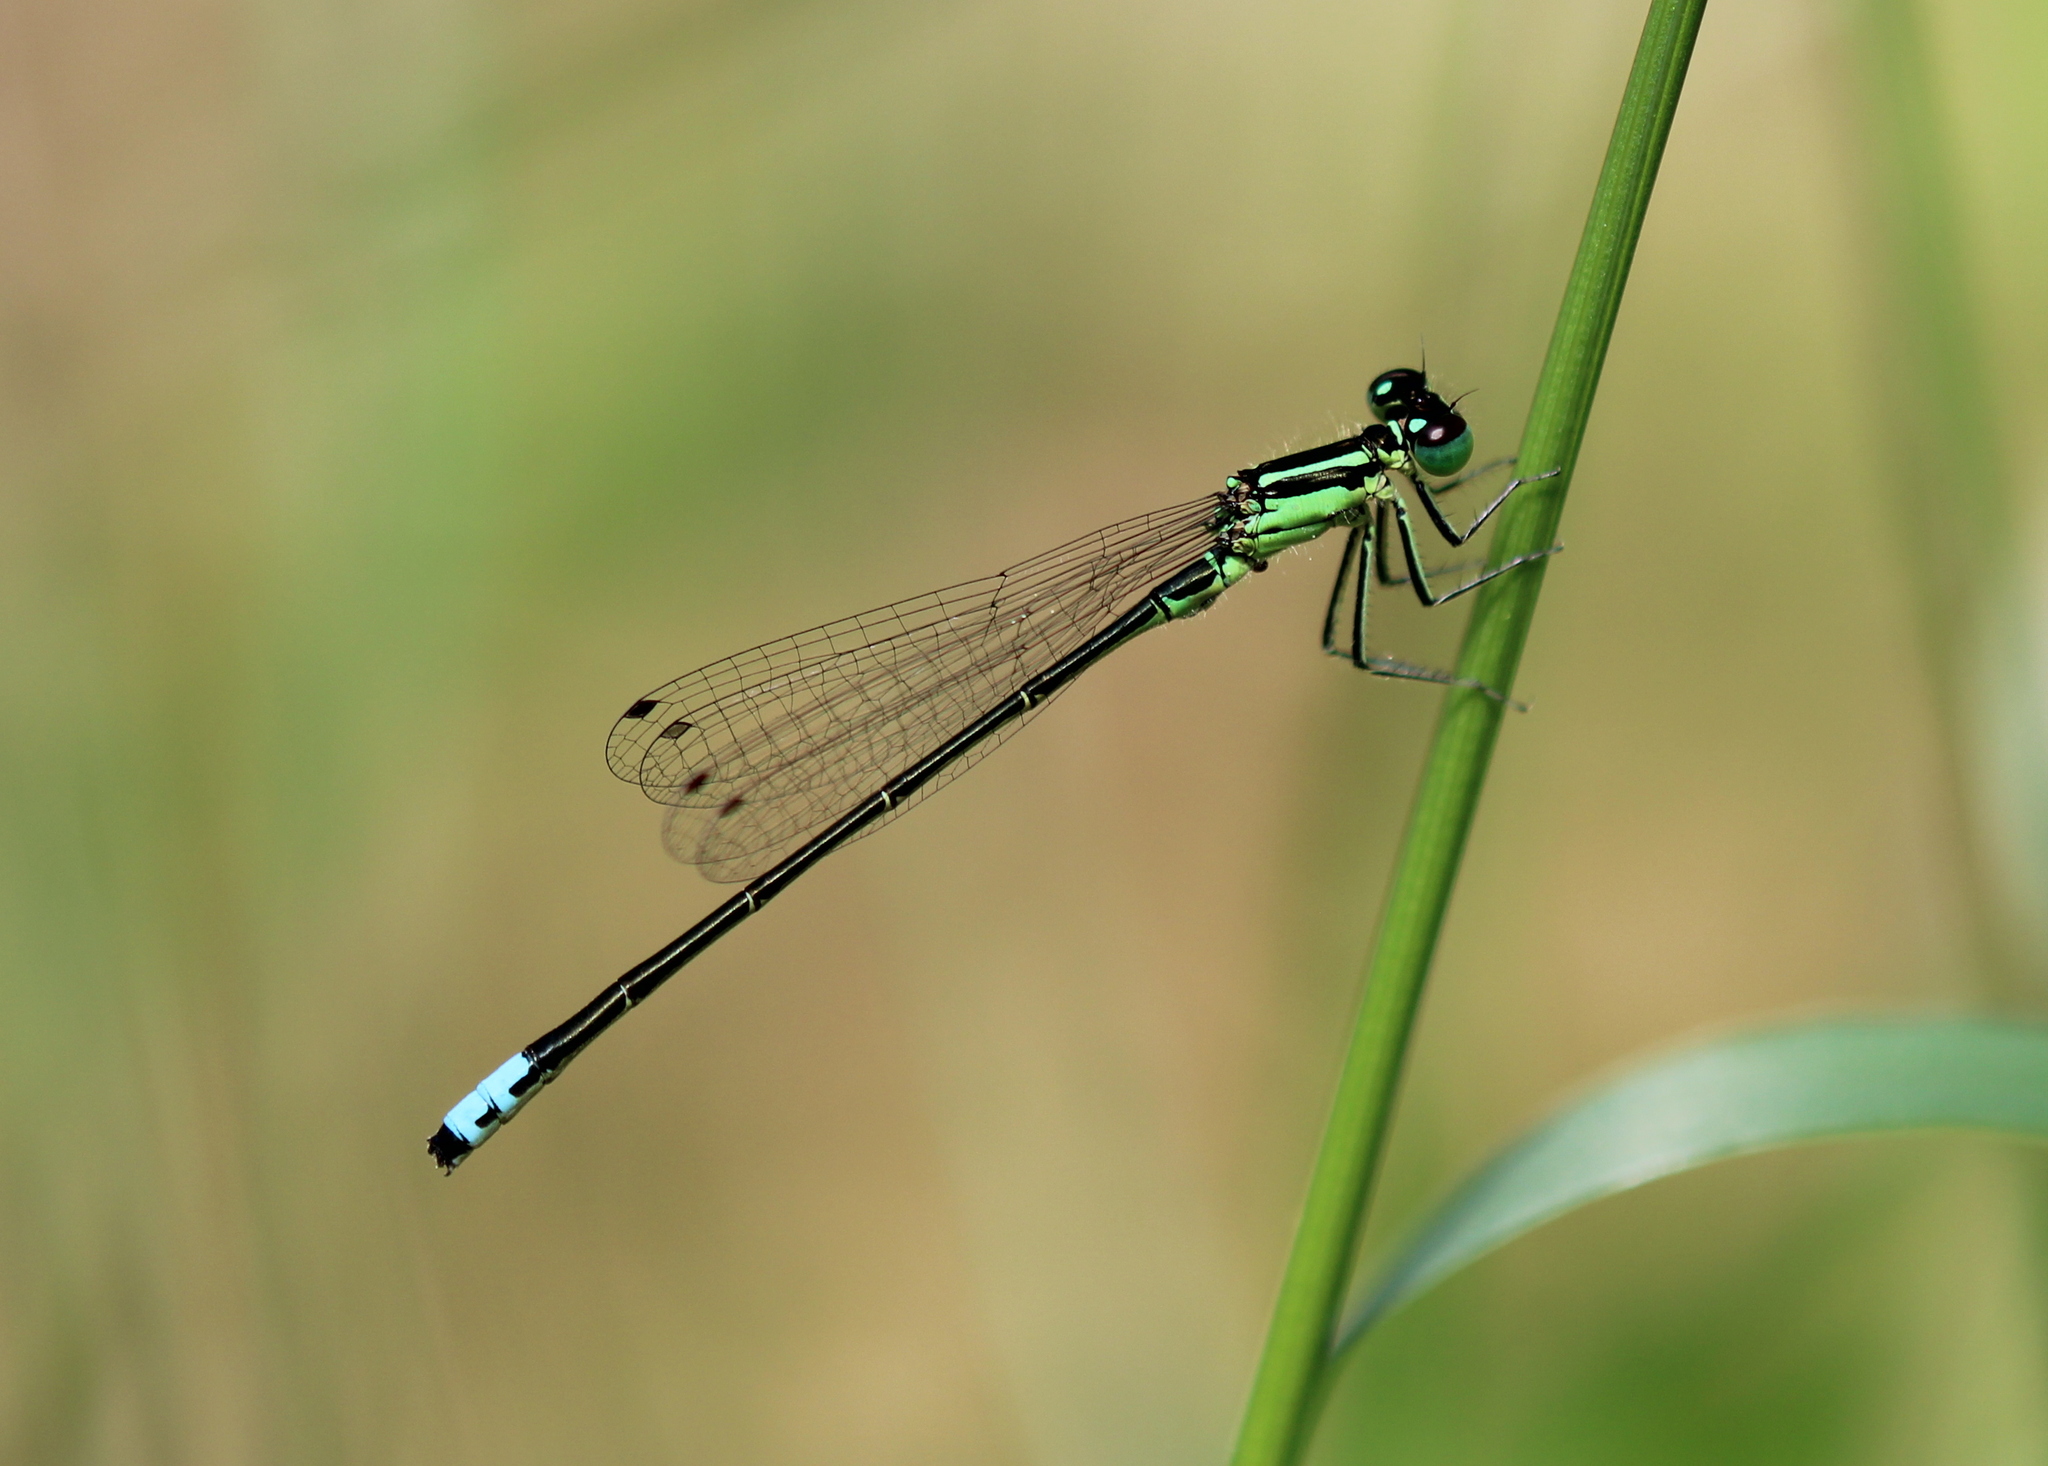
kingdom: Animalia
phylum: Arthropoda
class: Insecta
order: Odonata
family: Coenagrionidae
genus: Ischnura
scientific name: Ischnura verticalis
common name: Eastern forktail
